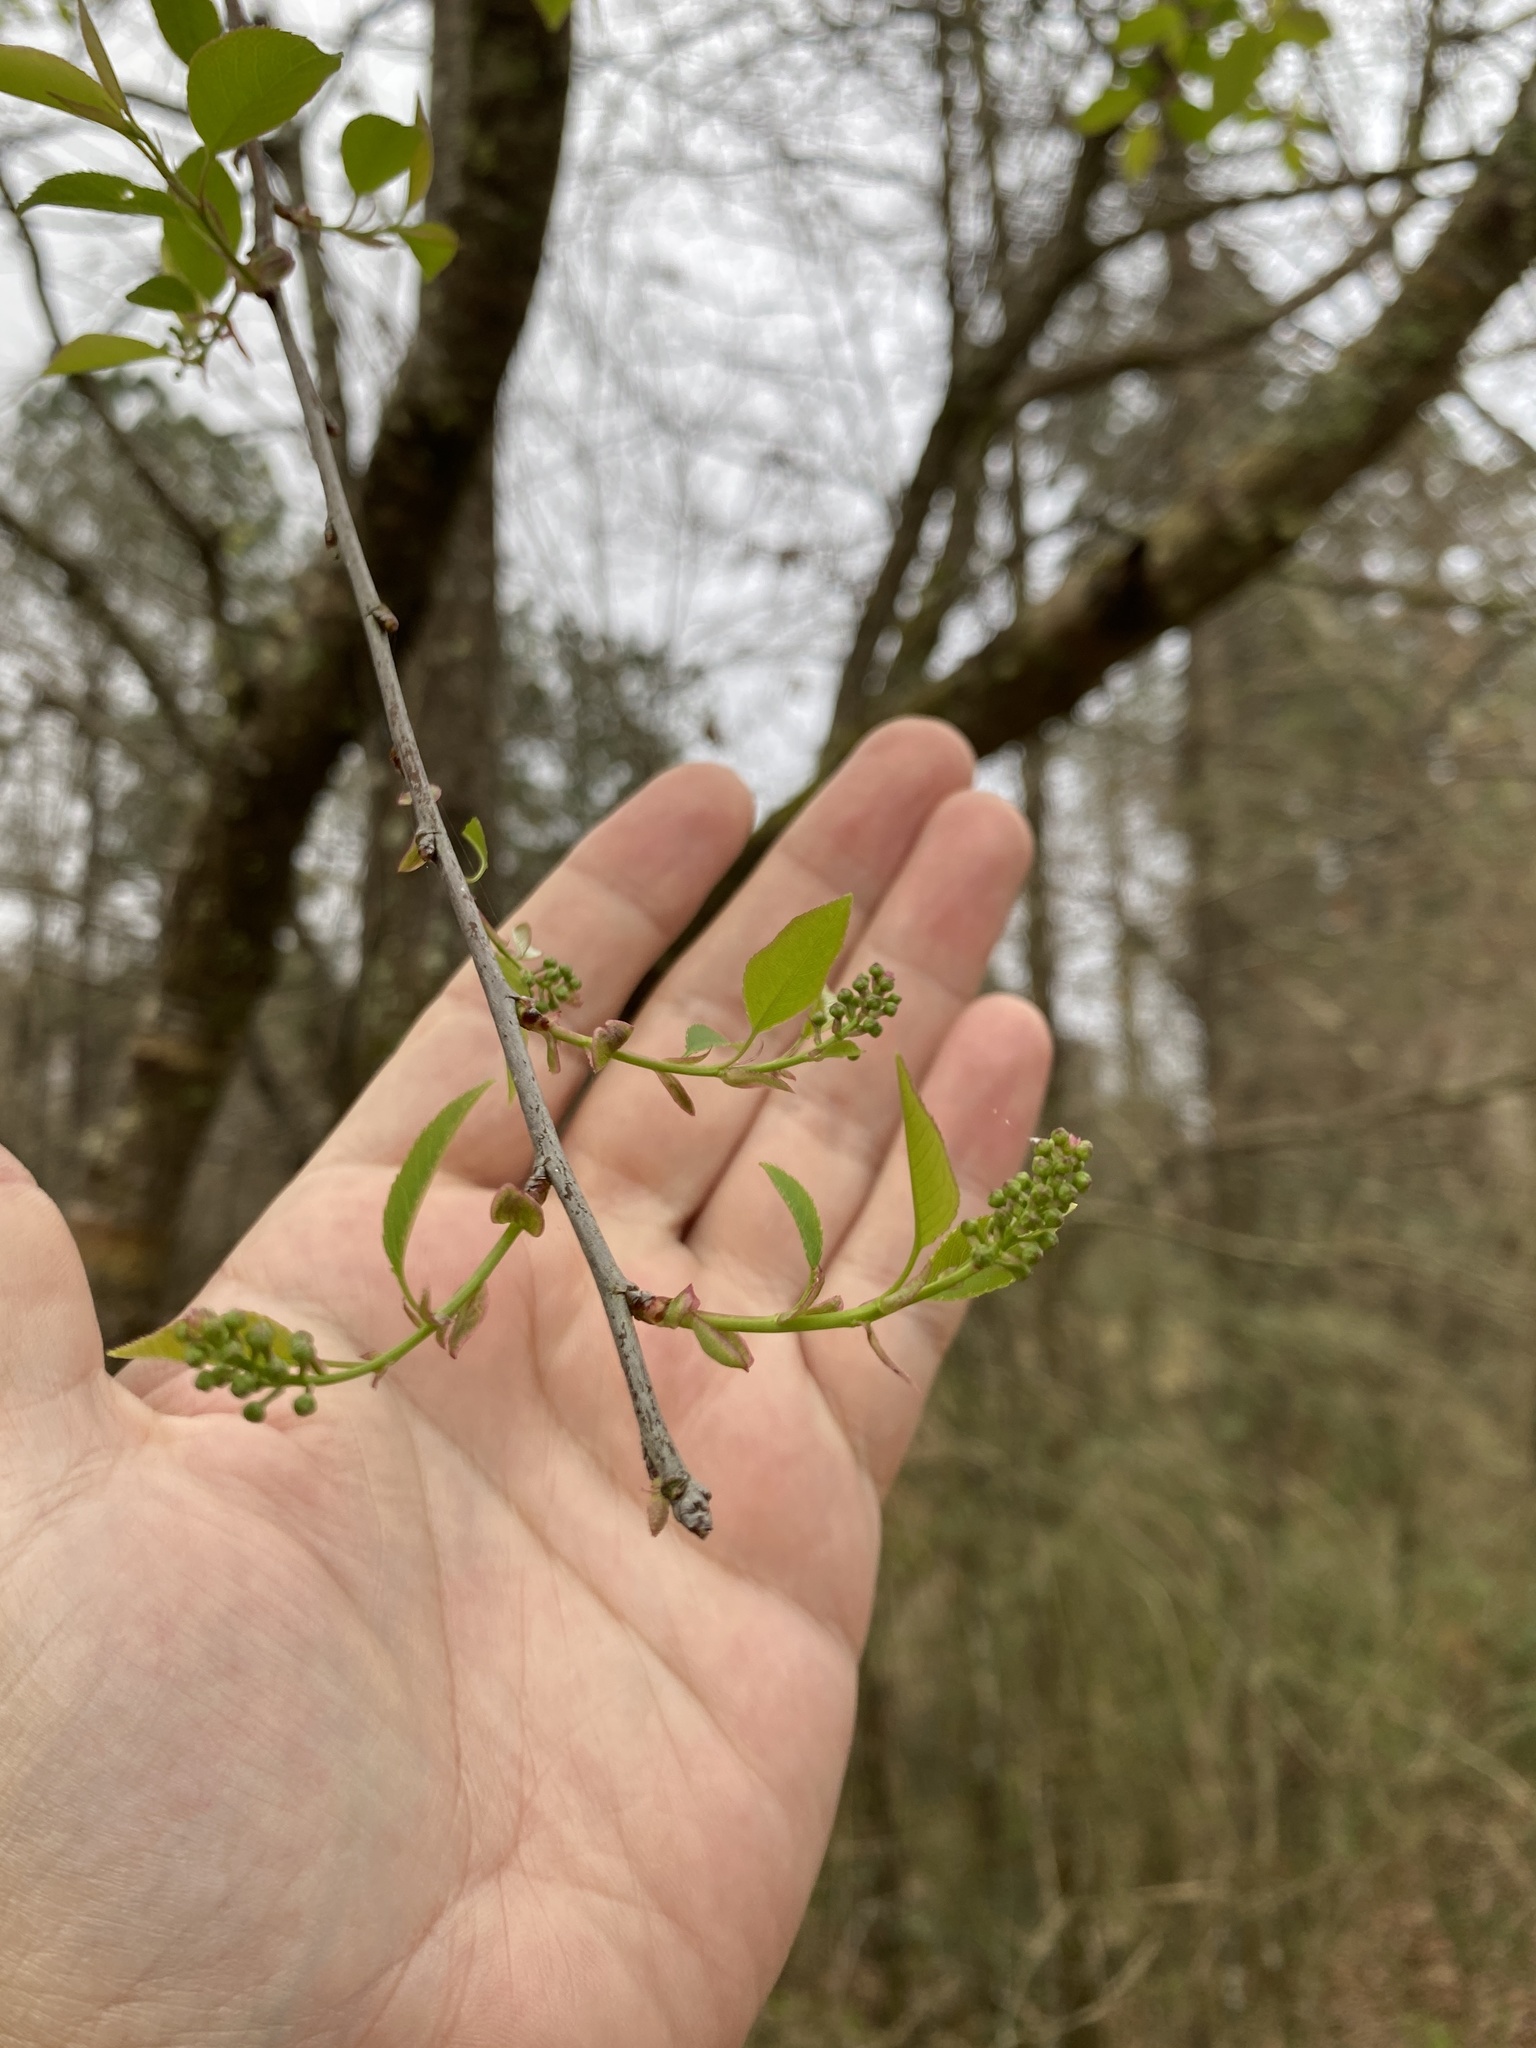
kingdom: Plantae
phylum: Tracheophyta
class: Magnoliopsida
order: Rosales
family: Rosaceae
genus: Prunus
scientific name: Prunus serotina
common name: Black cherry
